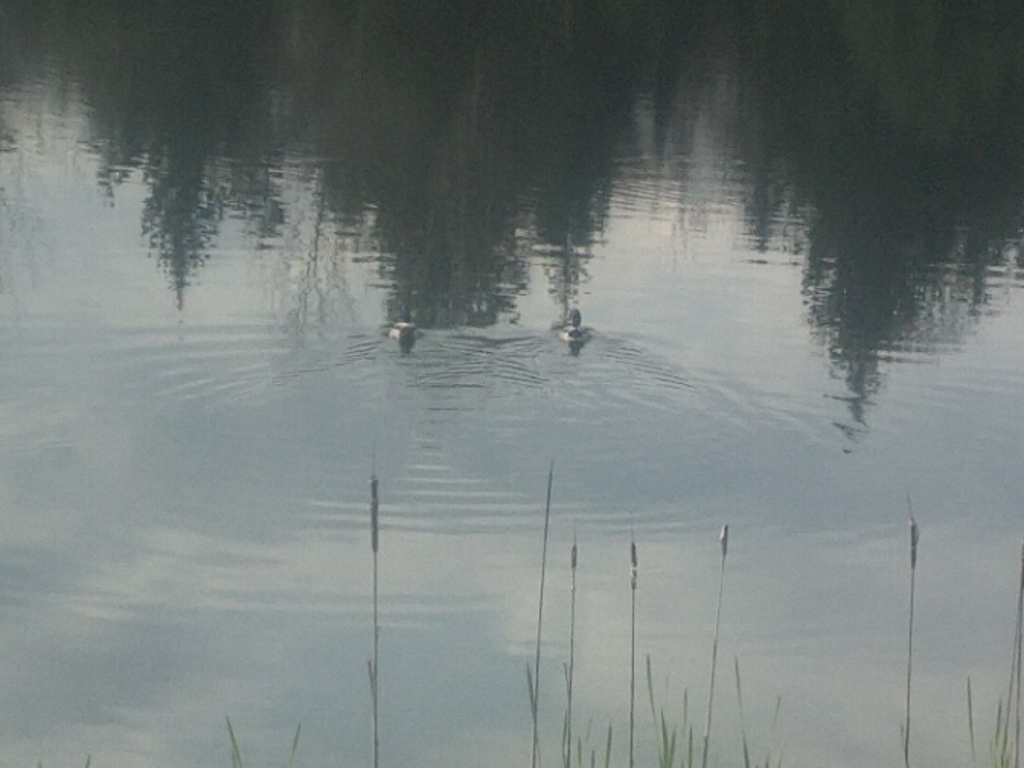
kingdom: Animalia
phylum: Chordata
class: Aves
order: Anseriformes
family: Anatidae
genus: Anas
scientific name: Anas platyrhynchos
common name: Mallard
